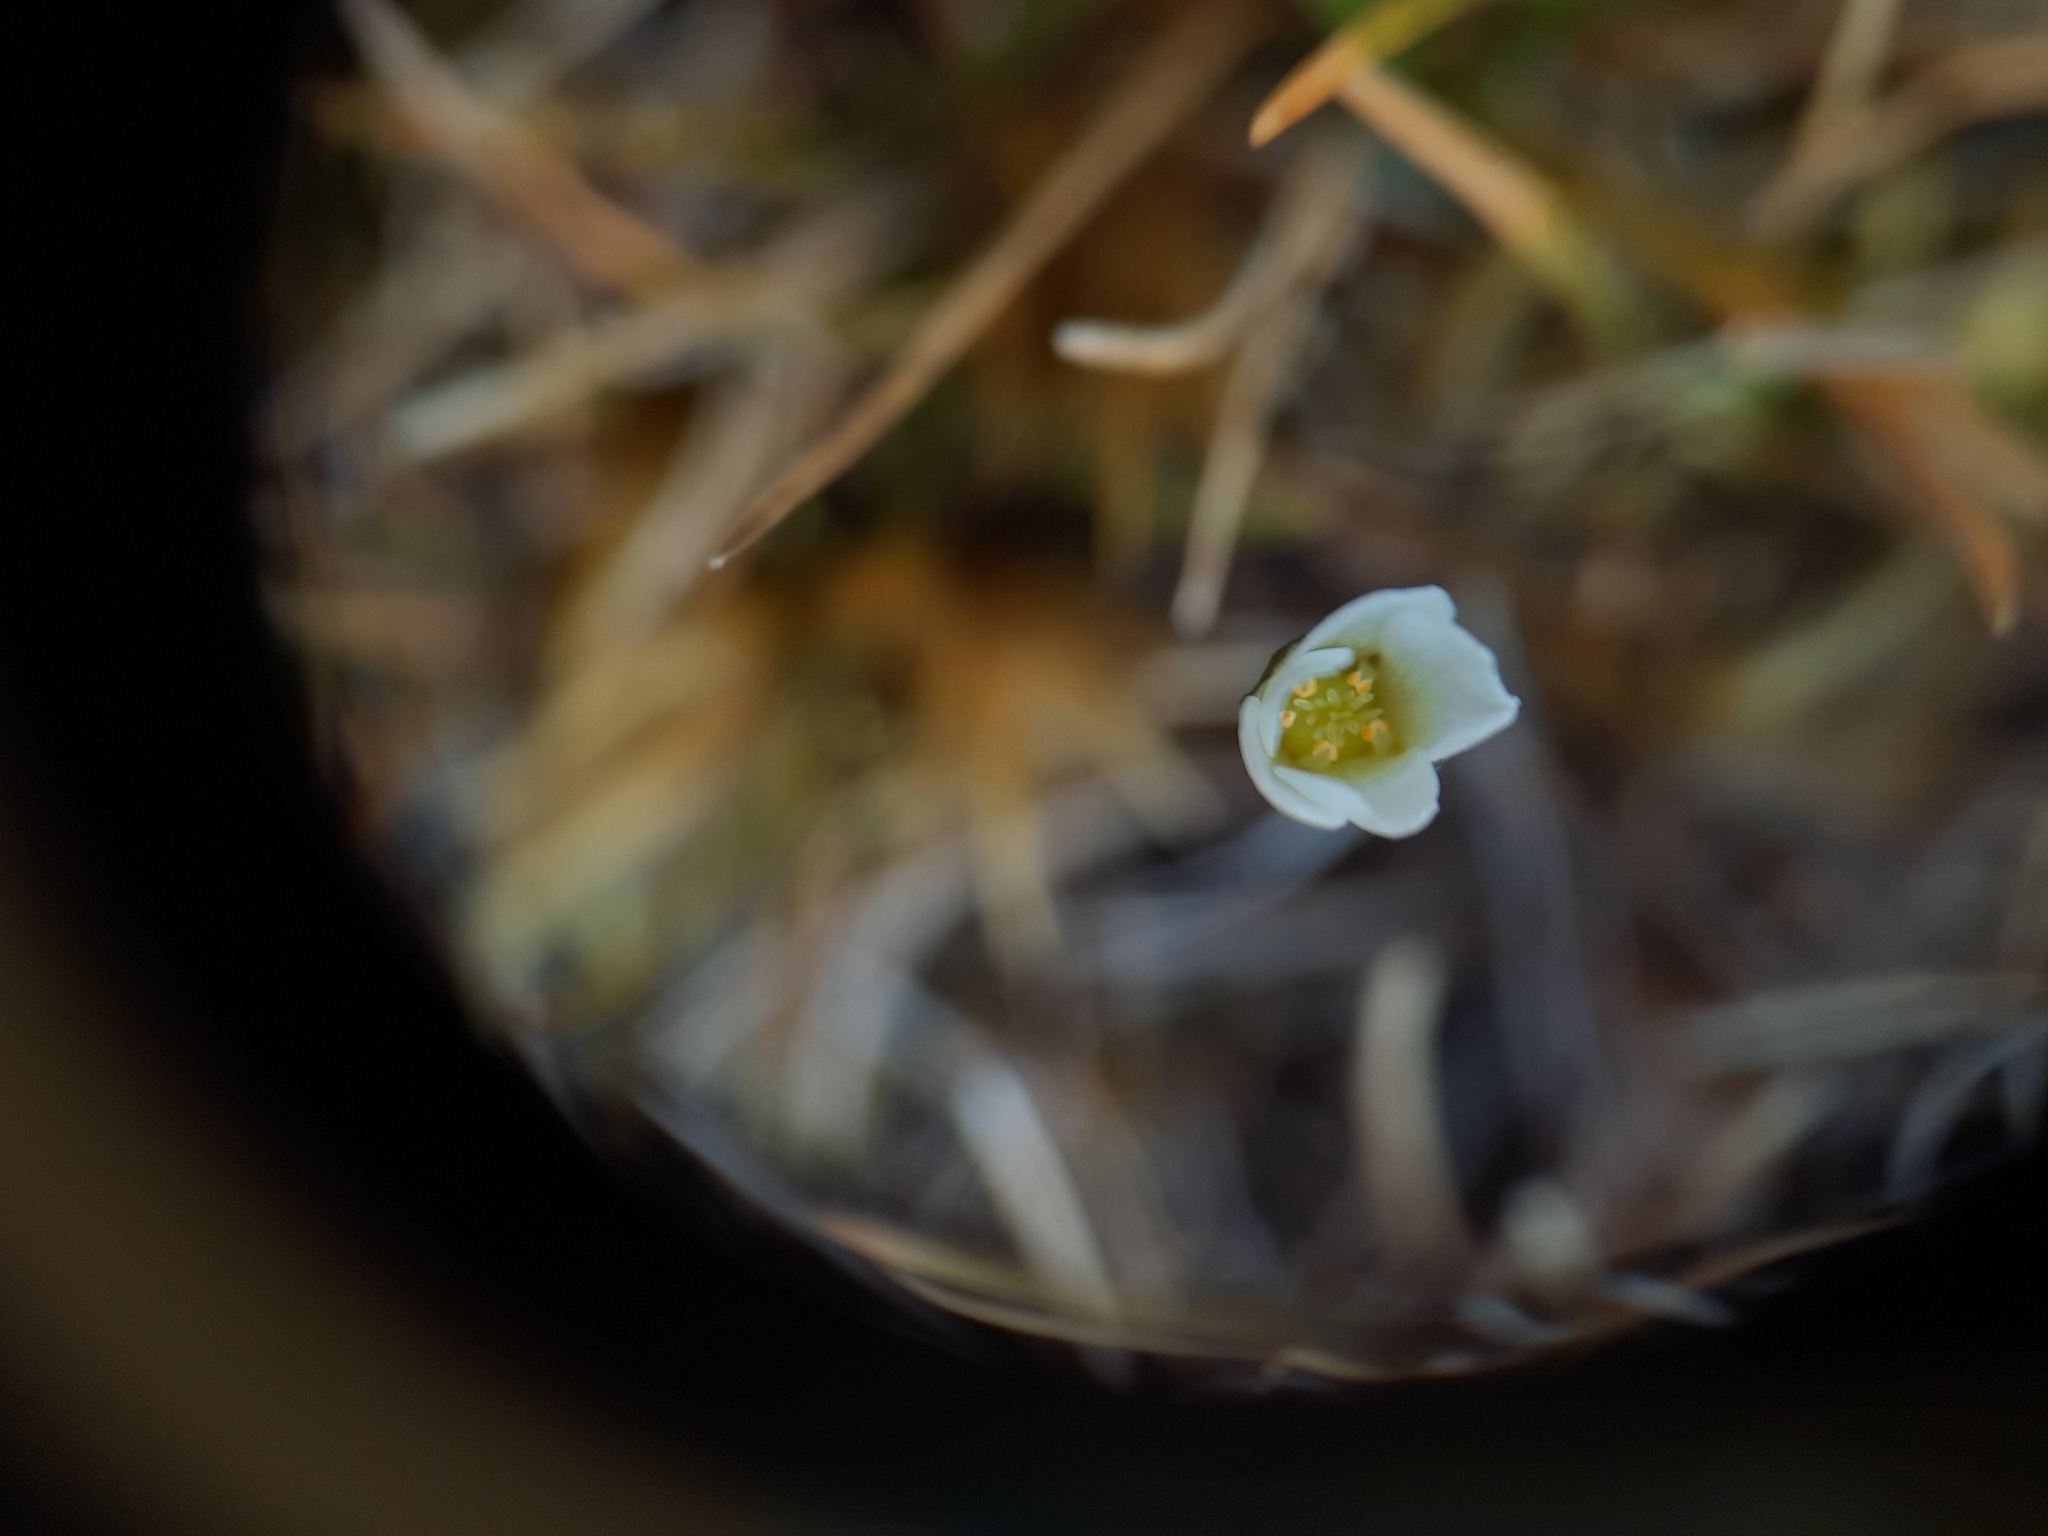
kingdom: Plantae
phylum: Tracheophyta
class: Magnoliopsida
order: Caryophyllales
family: Droseraceae
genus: Drosera
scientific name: Drosera stenopetala
